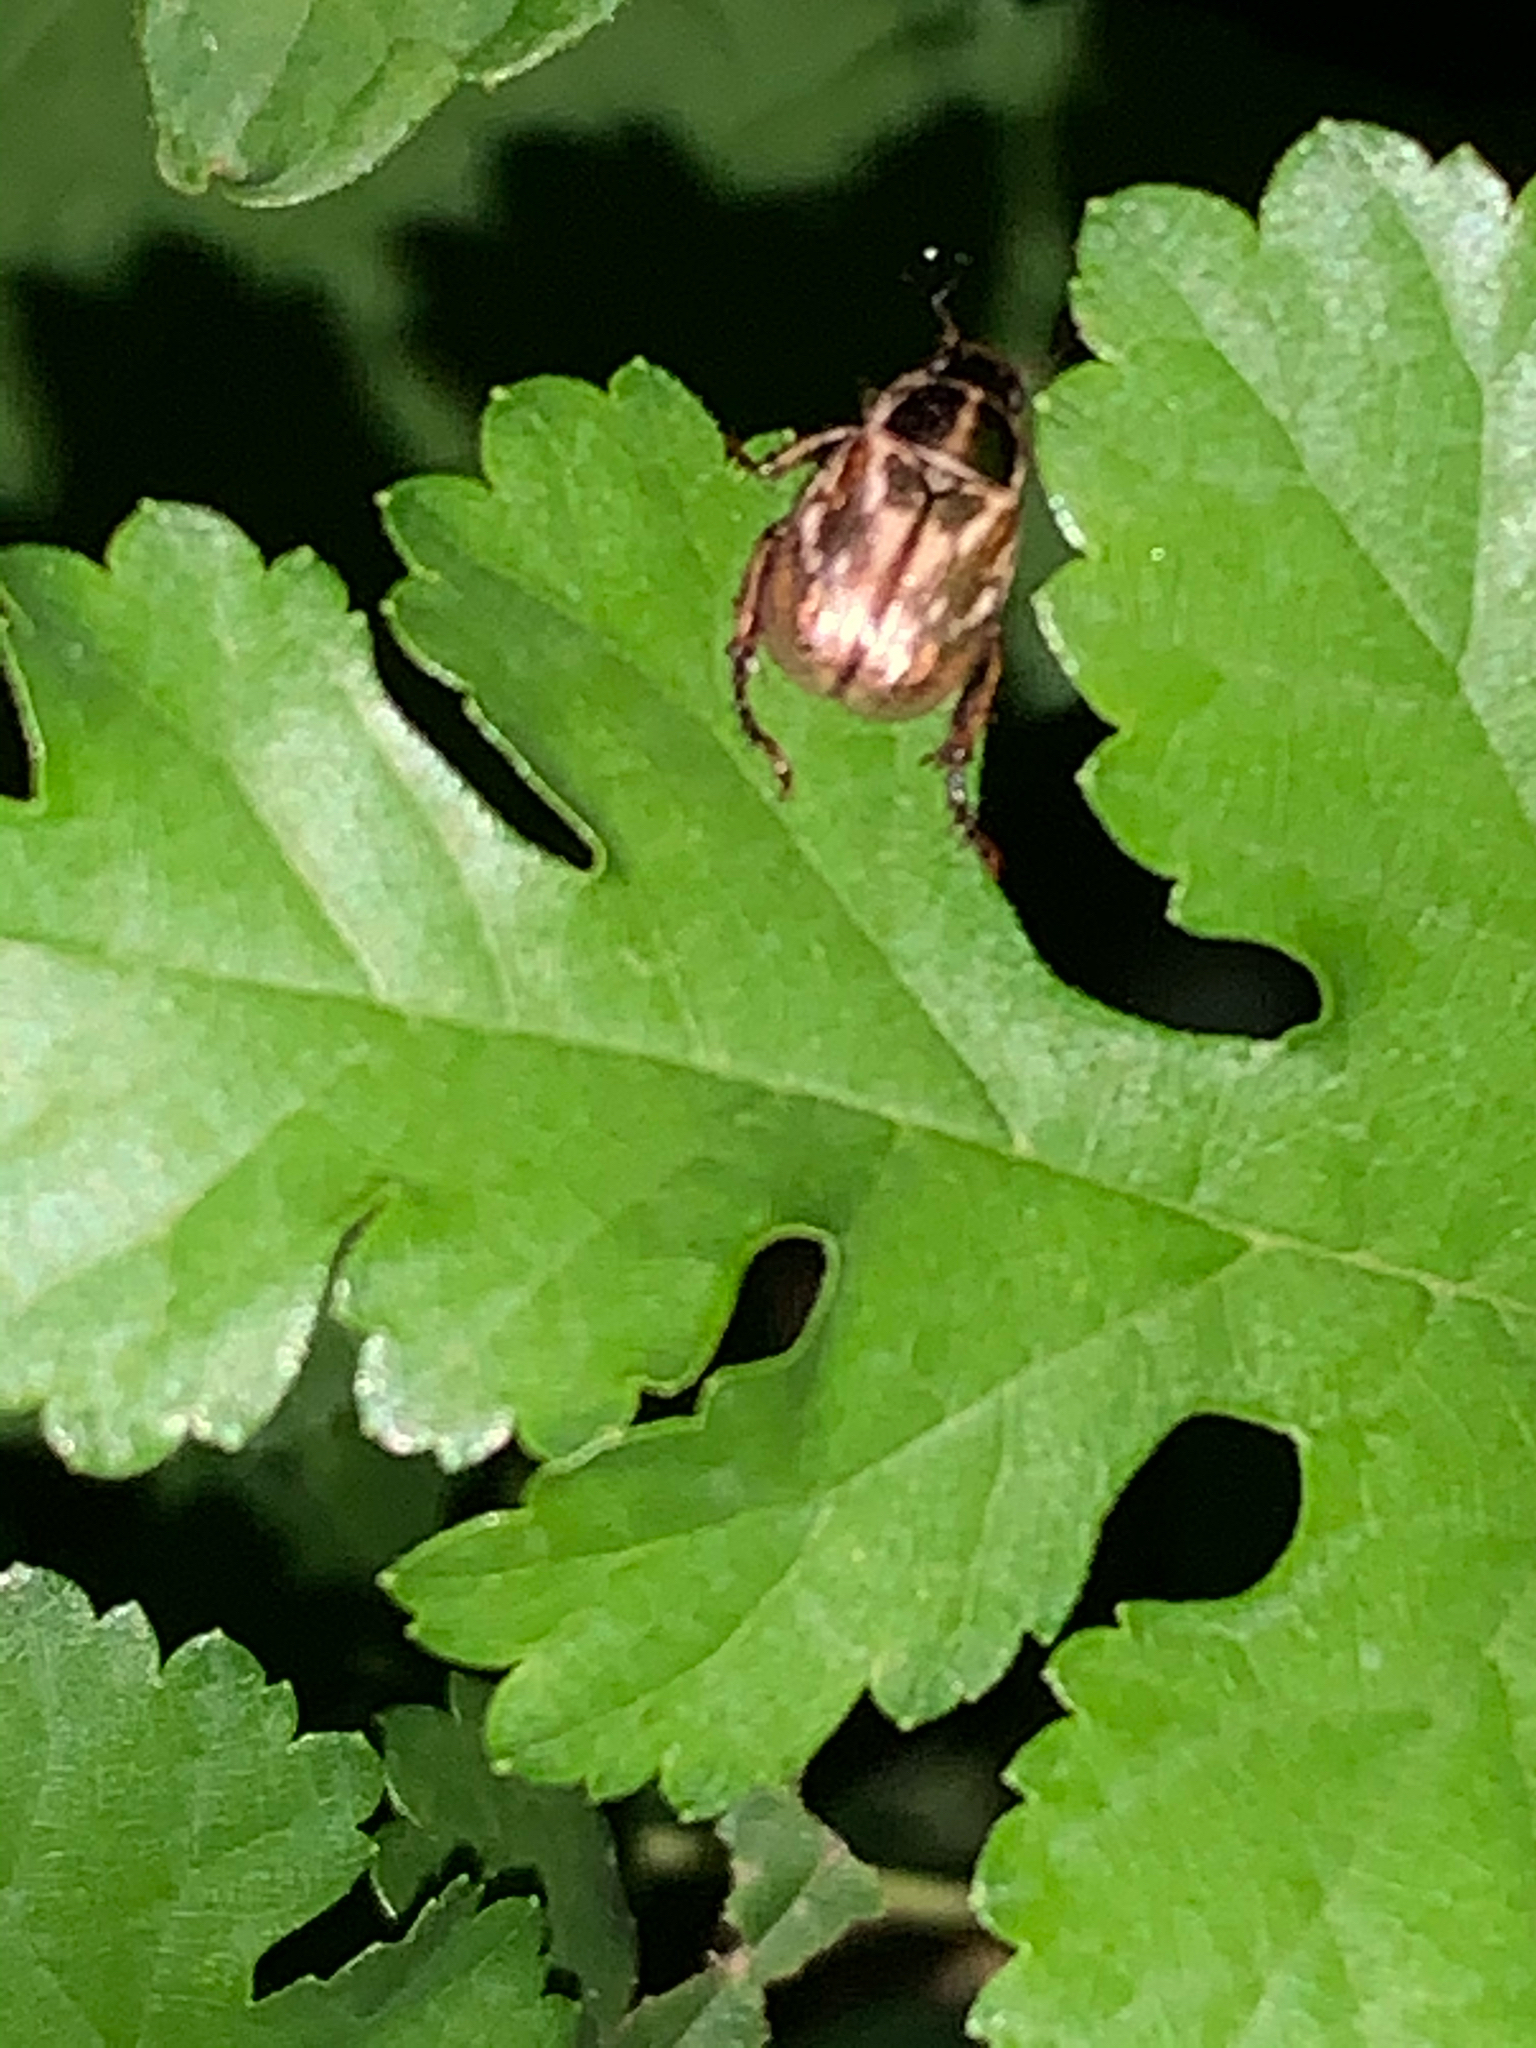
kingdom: Animalia
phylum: Arthropoda
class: Insecta
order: Coleoptera
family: Scarabaeidae
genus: Exomala
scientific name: Exomala orientalis
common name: Oriental beetle
